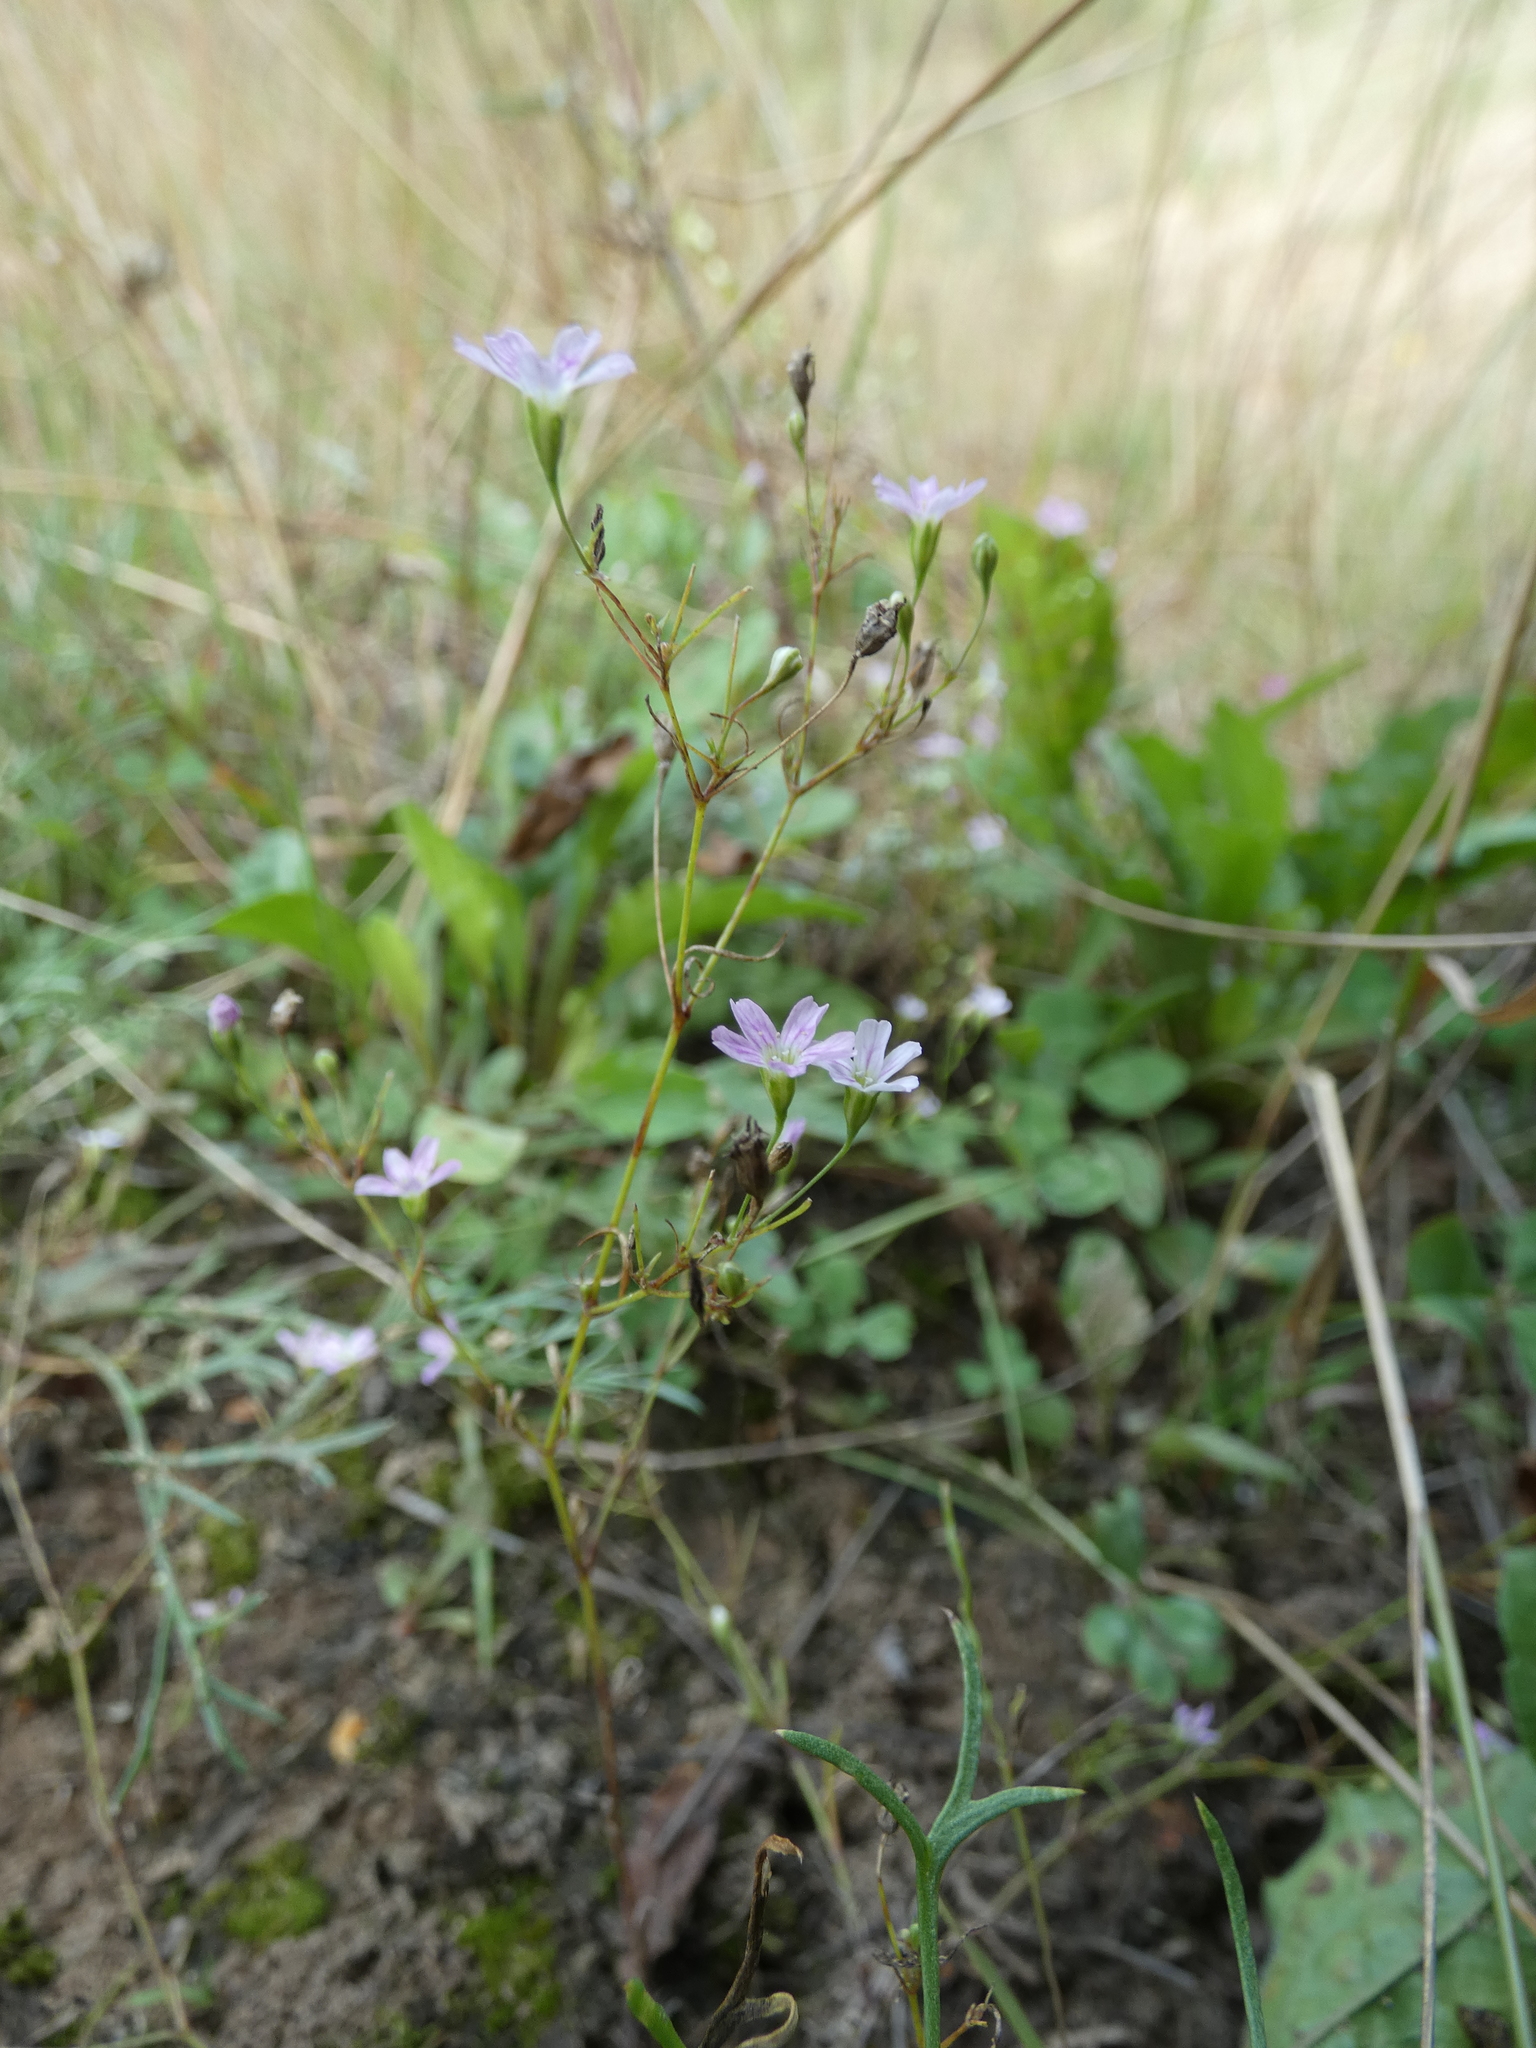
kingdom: Plantae
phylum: Tracheophyta
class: Magnoliopsida
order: Caryophyllales
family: Caryophyllaceae
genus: Psammophiliella
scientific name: Psammophiliella muralis
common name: Cushion baby's-breath
